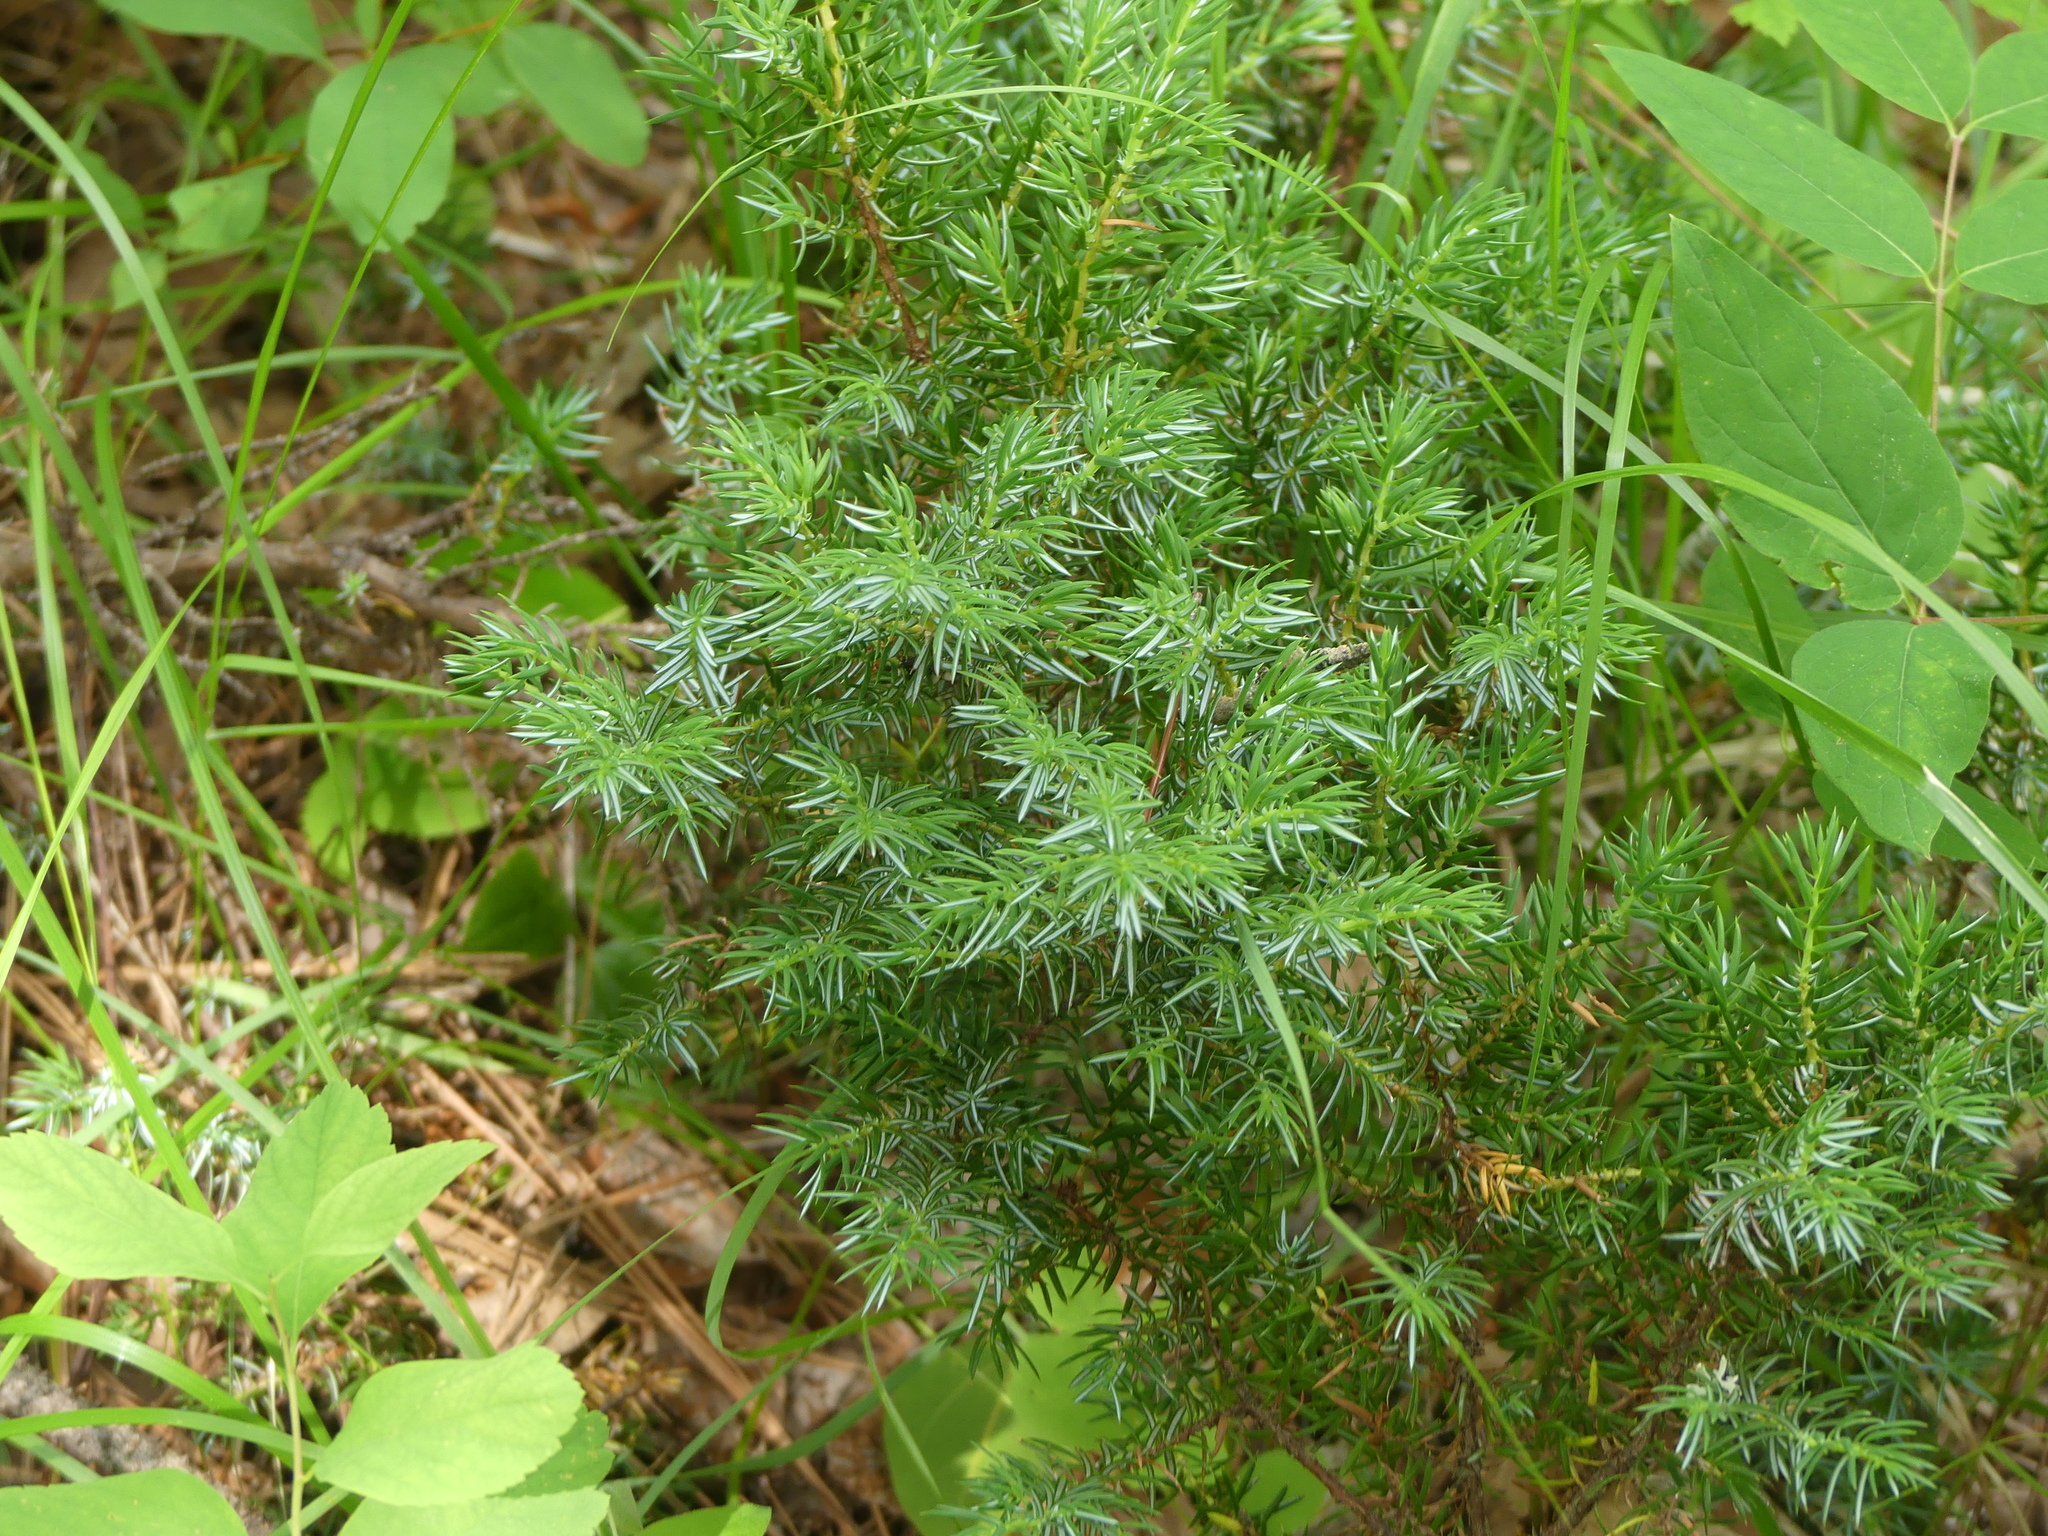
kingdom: Plantae
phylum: Tracheophyta
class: Pinopsida
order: Pinales
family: Cupressaceae
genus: Juniperus
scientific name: Juniperus communis
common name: Common juniper
